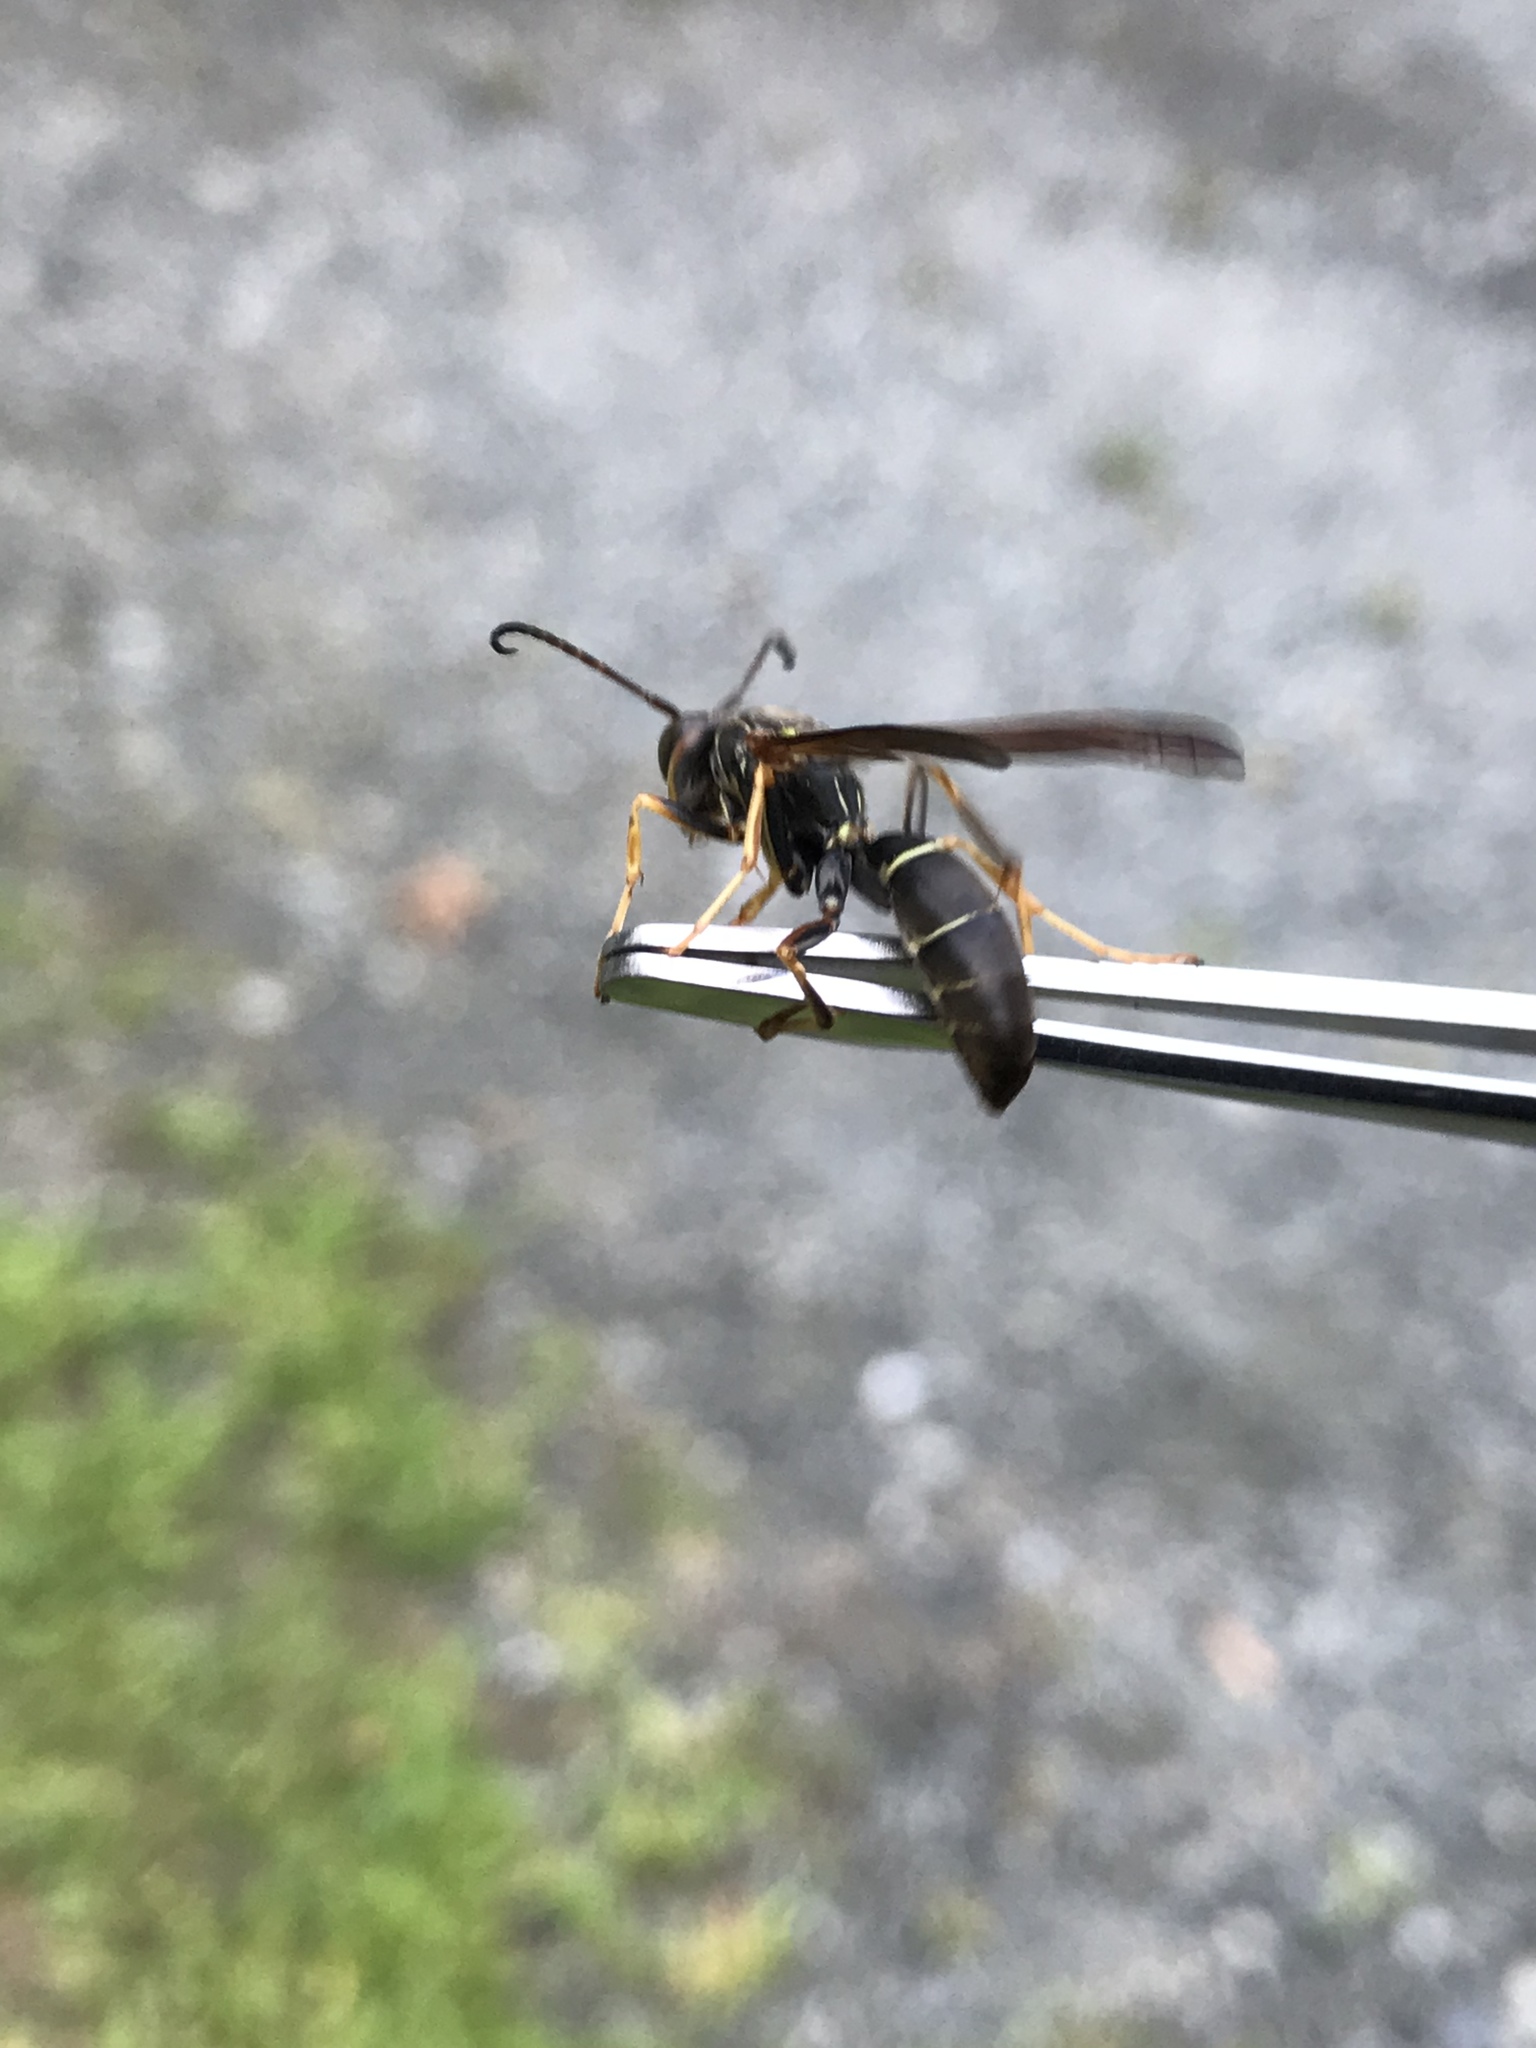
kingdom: Animalia
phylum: Arthropoda
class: Insecta
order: Hymenoptera
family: Eumenidae
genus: Polistes
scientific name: Polistes fuscatus
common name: Dark paper wasp
